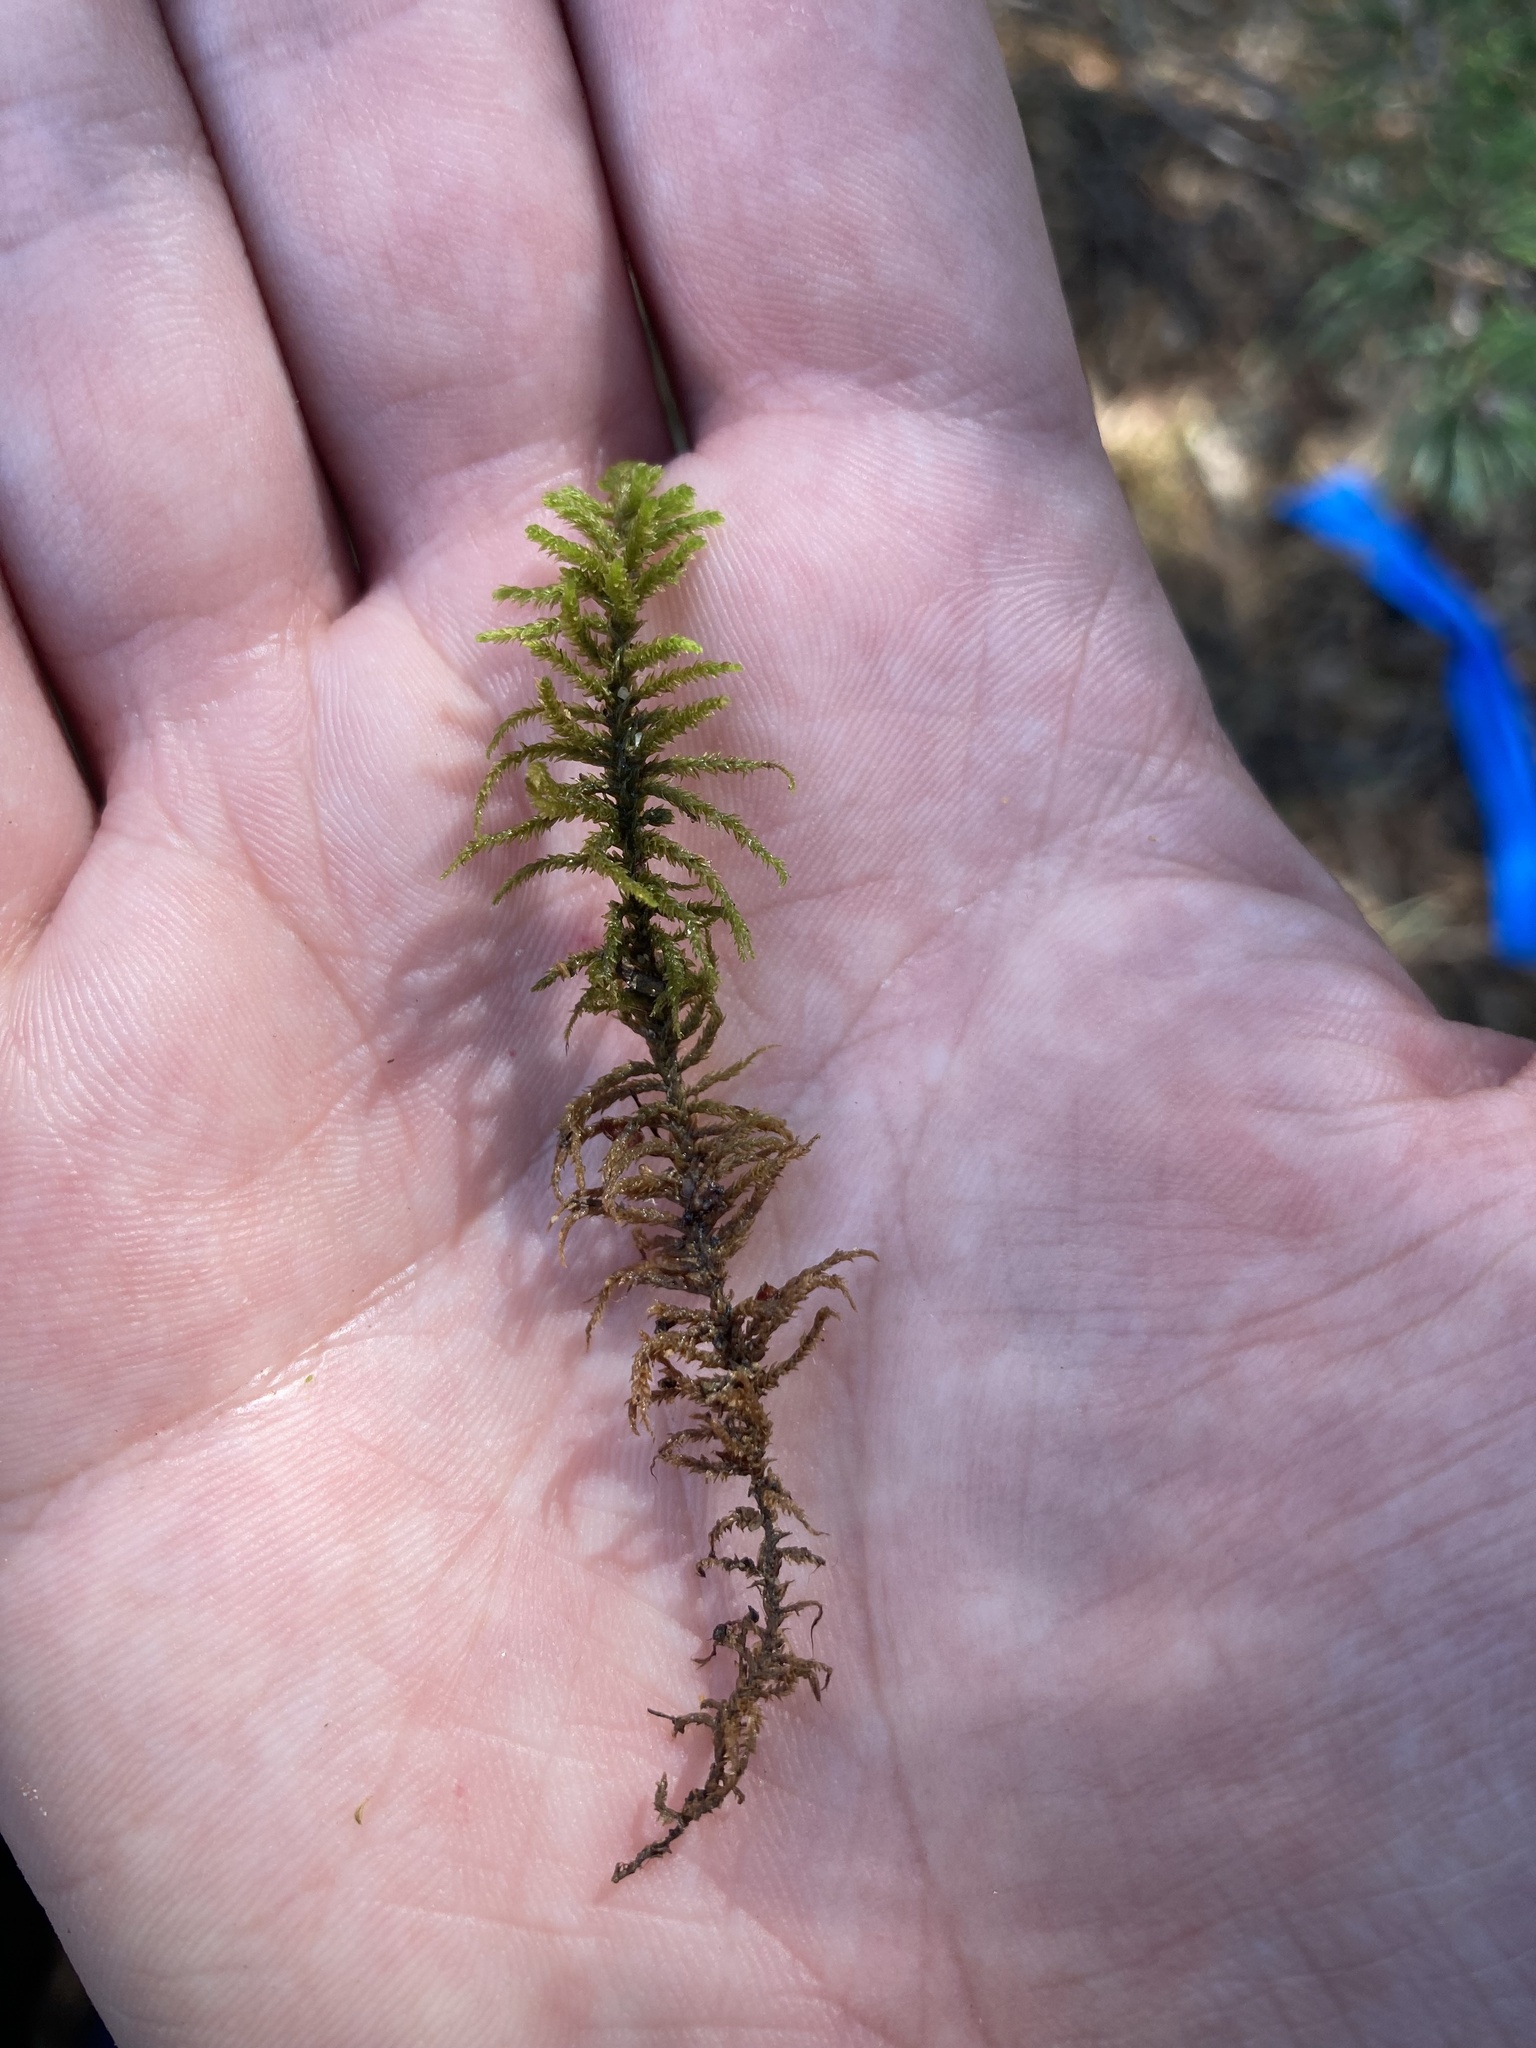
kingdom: Plantae
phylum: Bryophyta
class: Bryopsida
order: Hypnales
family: Thuidiaceae
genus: Abietinella
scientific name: Abietinella abietina
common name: Wiry fern moss
